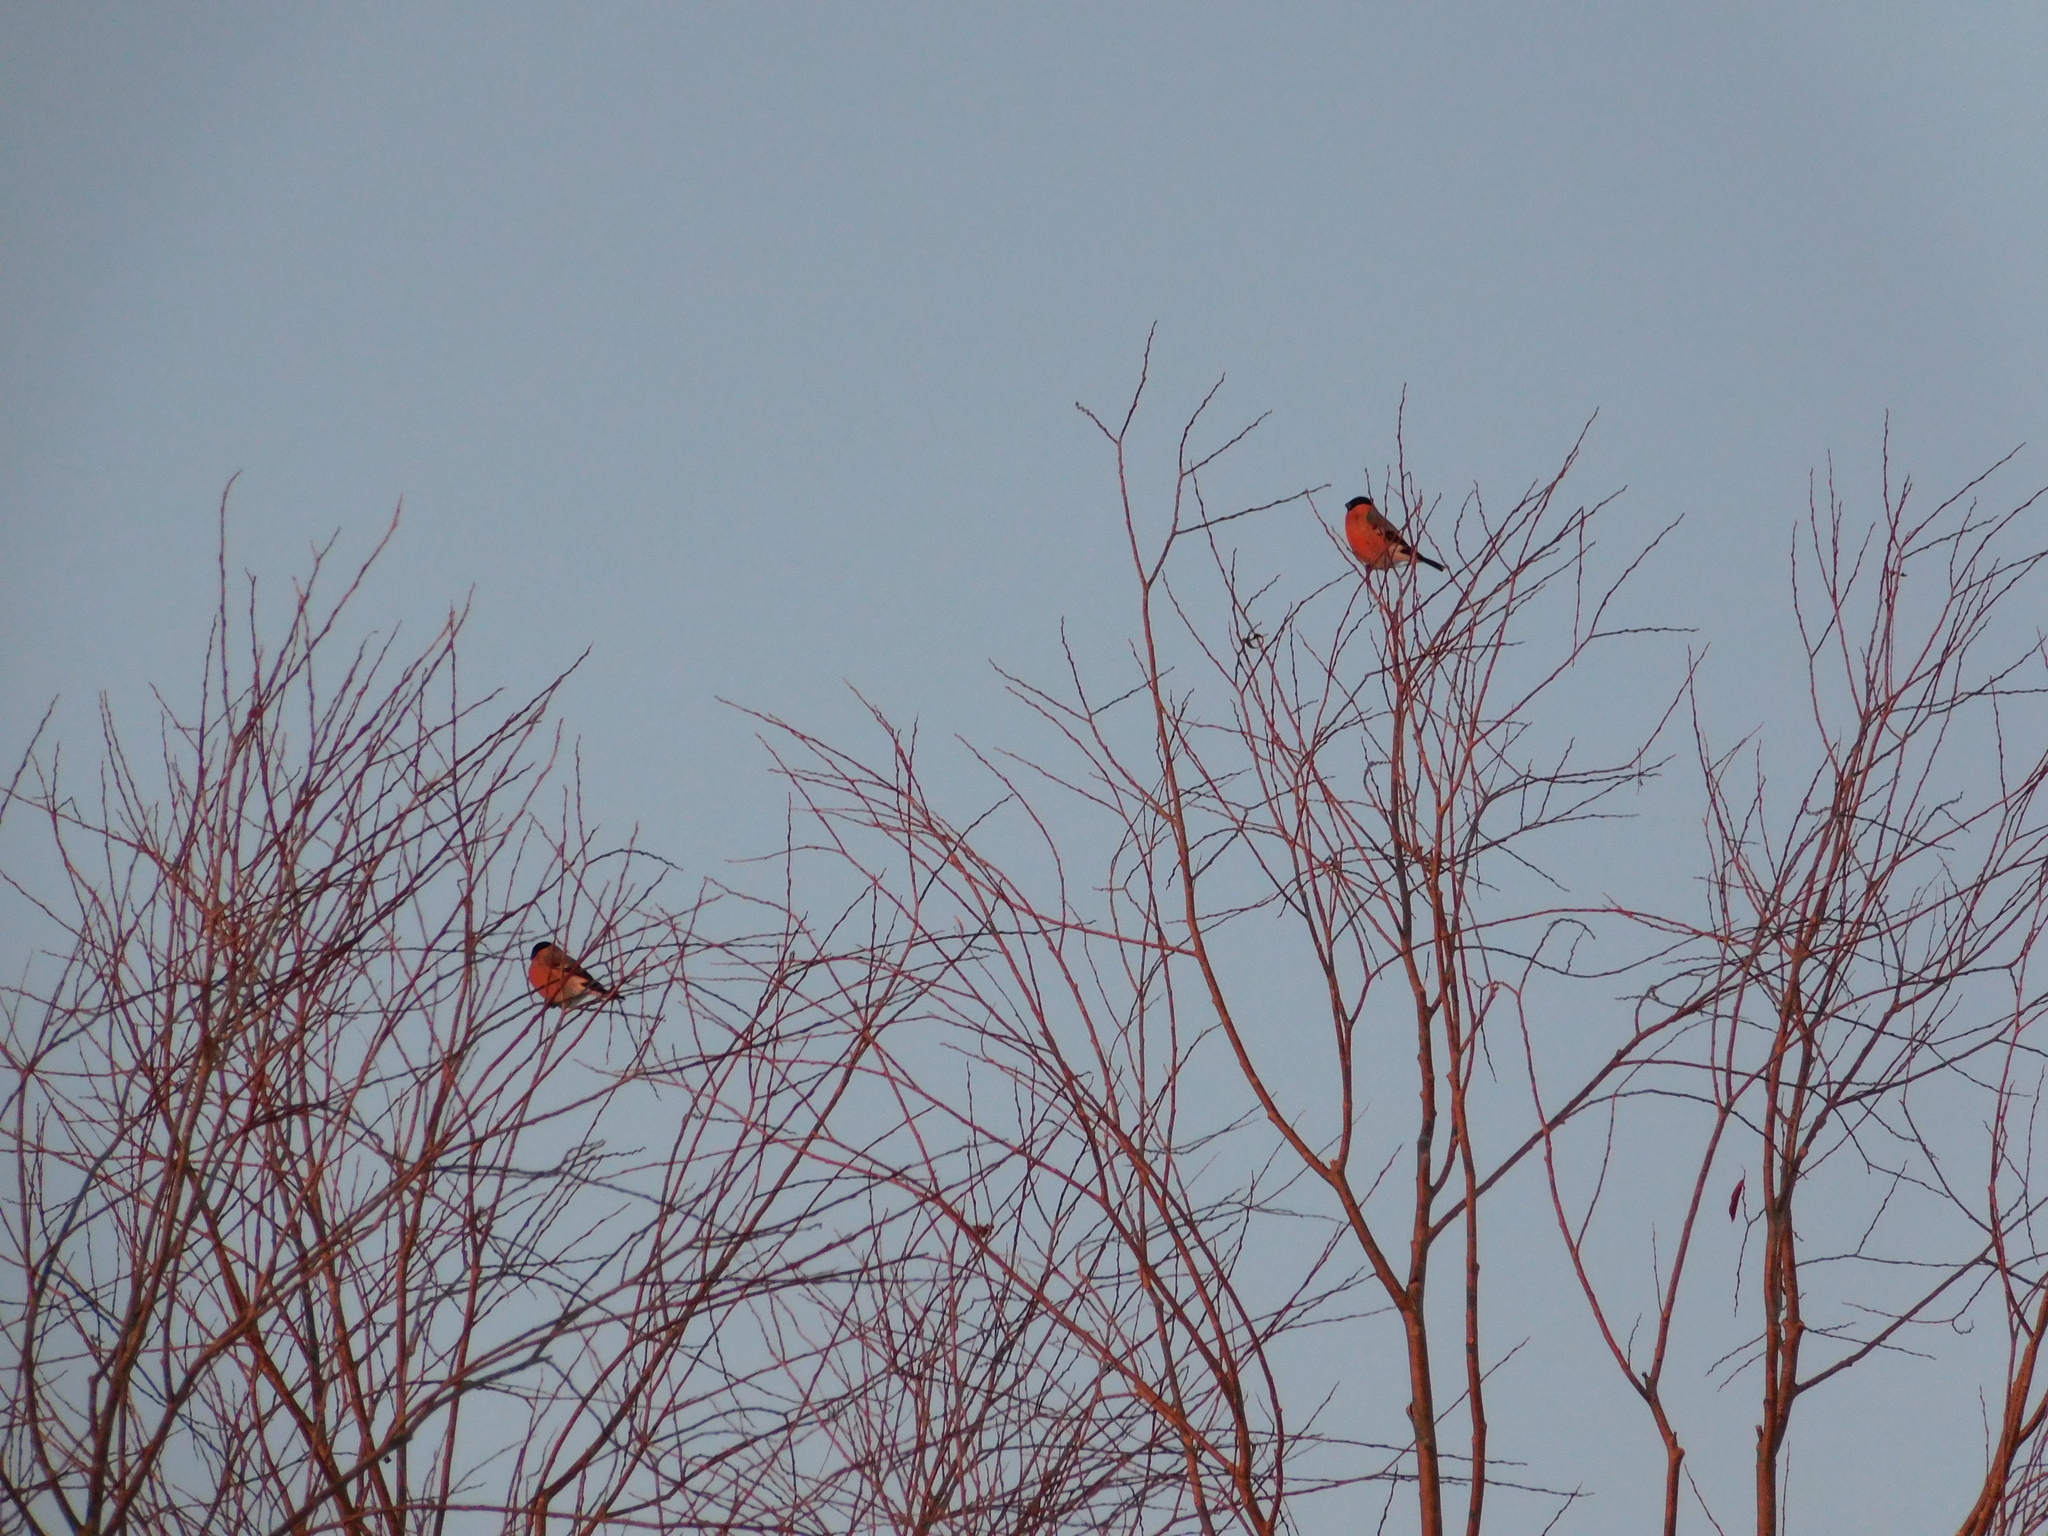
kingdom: Animalia
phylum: Chordata
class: Aves
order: Passeriformes
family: Fringillidae
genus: Pyrrhula
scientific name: Pyrrhula pyrrhula
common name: Eurasian bullfinch
